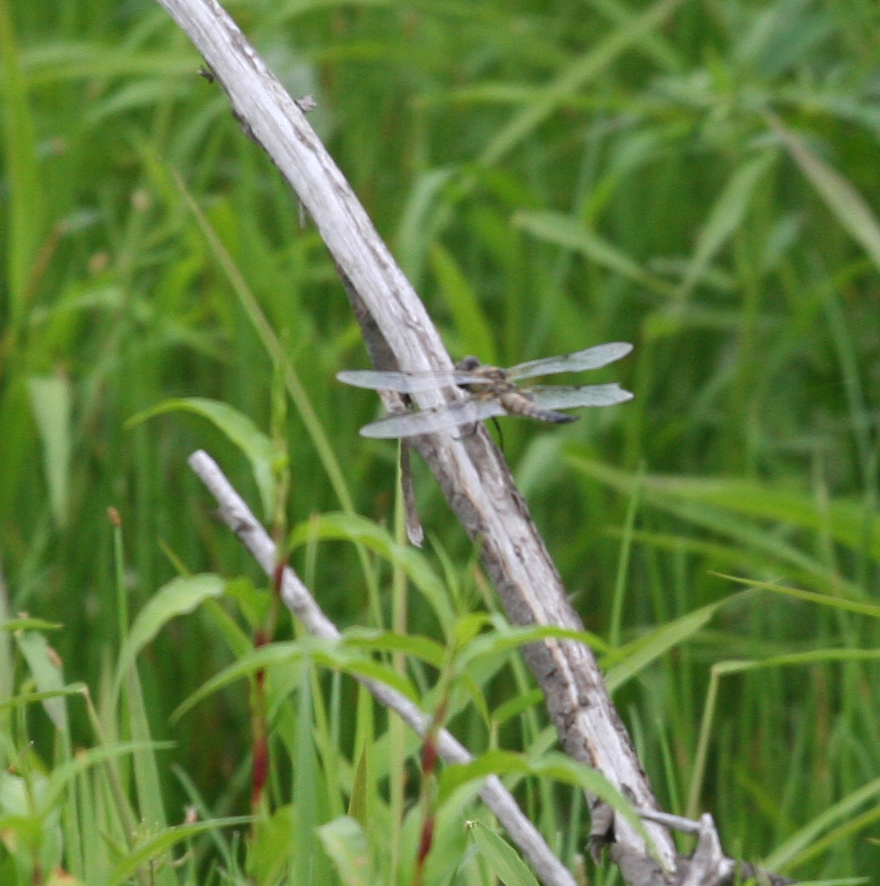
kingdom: Animalia
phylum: Arthropoda
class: Insecta
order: Odonata
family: Libellulidae
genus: Libellula
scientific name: Libellula quadrimaculata
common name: Four-spotted chaser
